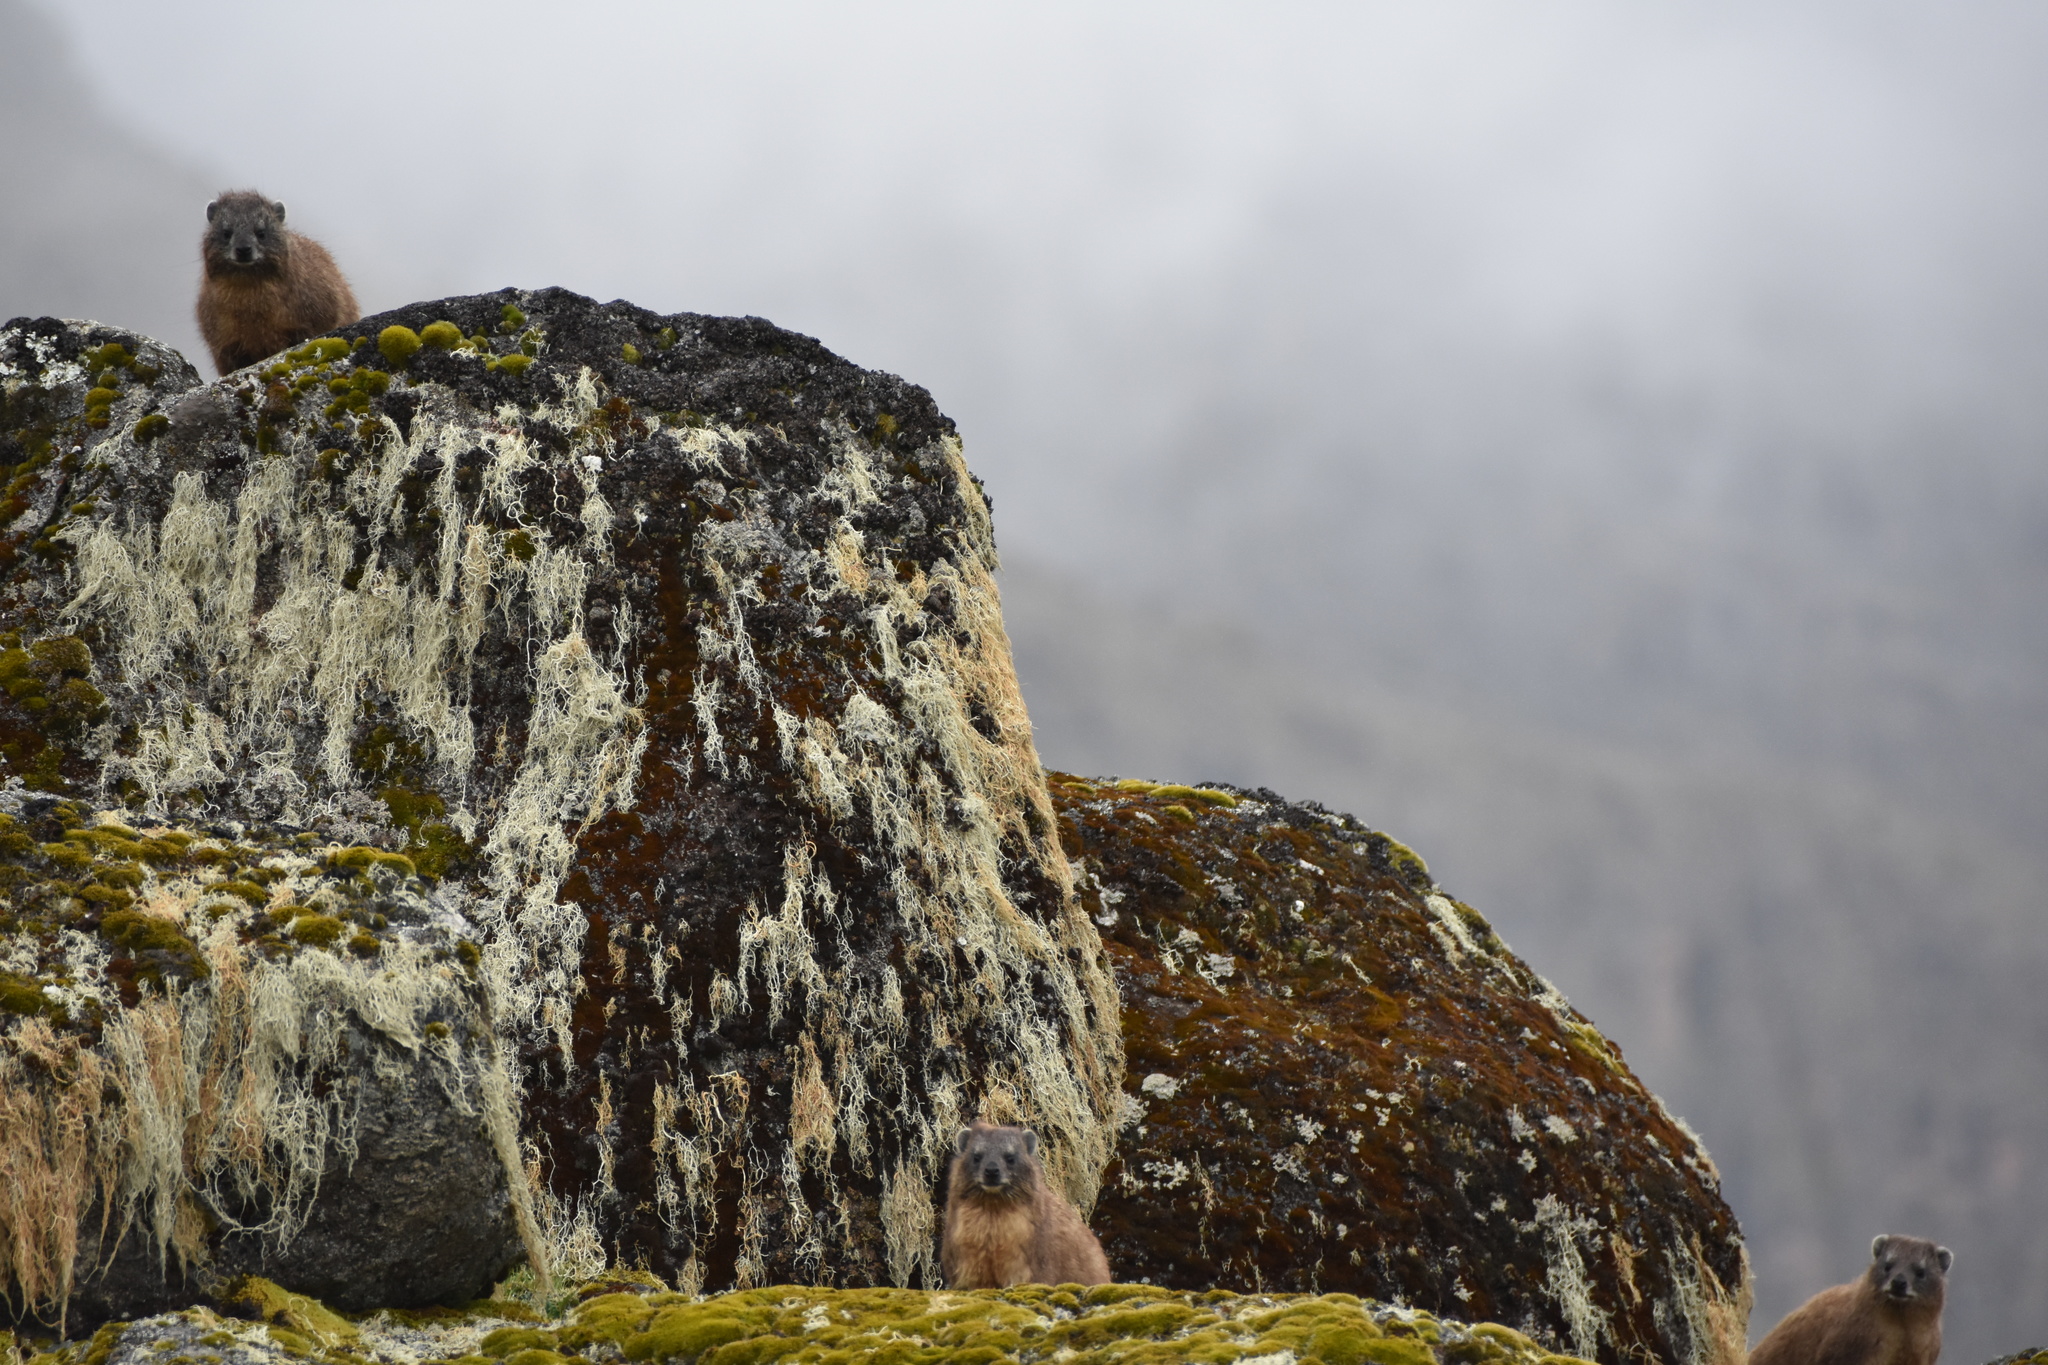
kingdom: Animalia
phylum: Chordata
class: Mammalia
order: Hyracoidea
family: Procaviidae
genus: Procavia
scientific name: Procavia capensis
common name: Rock hyrax
